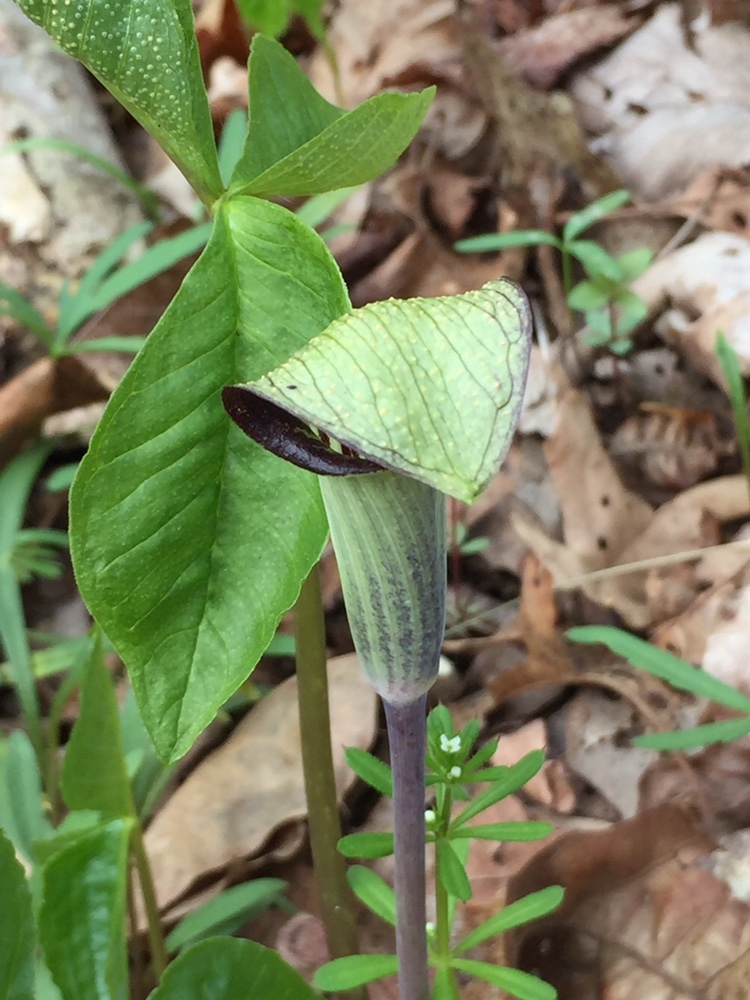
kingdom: Plantae
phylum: Tracheophyta
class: Liliopsida
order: Alismatales
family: Araceae
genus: Arisaema
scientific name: Arisaema triphyllum
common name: Jack-in-the-pulpit
